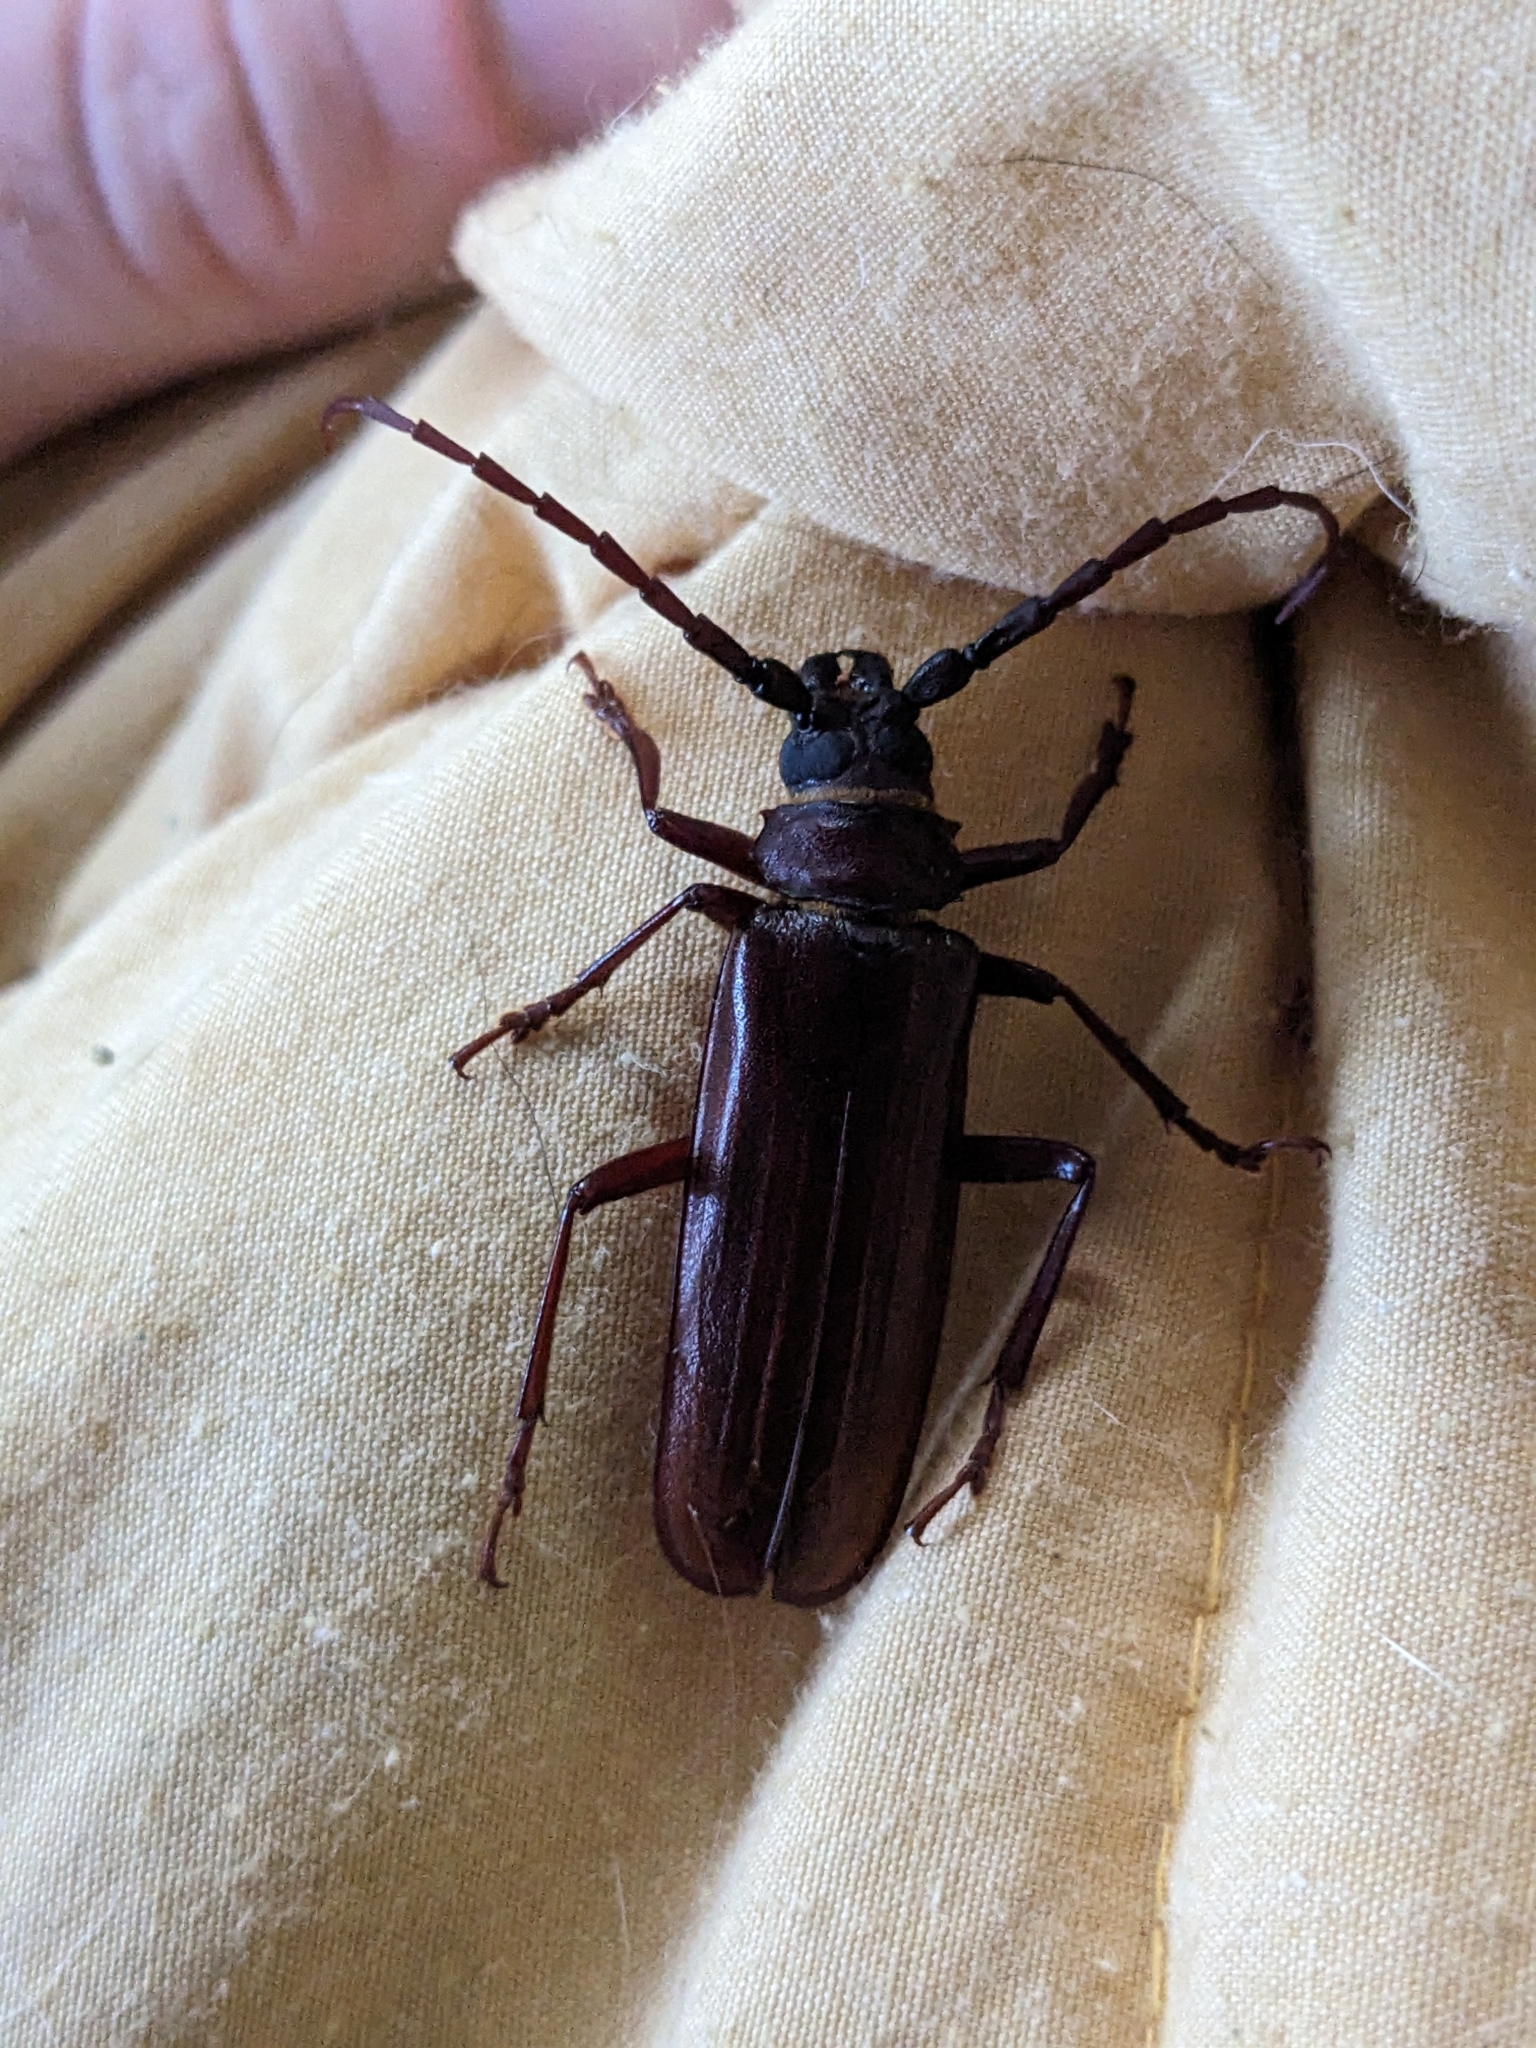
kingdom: Animalia
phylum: Arthropoda
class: Insecta
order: Coleoptera
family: Cerambycidae
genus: Orthosoma
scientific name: Orthosoma brunneum
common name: Brown prionid beetle
